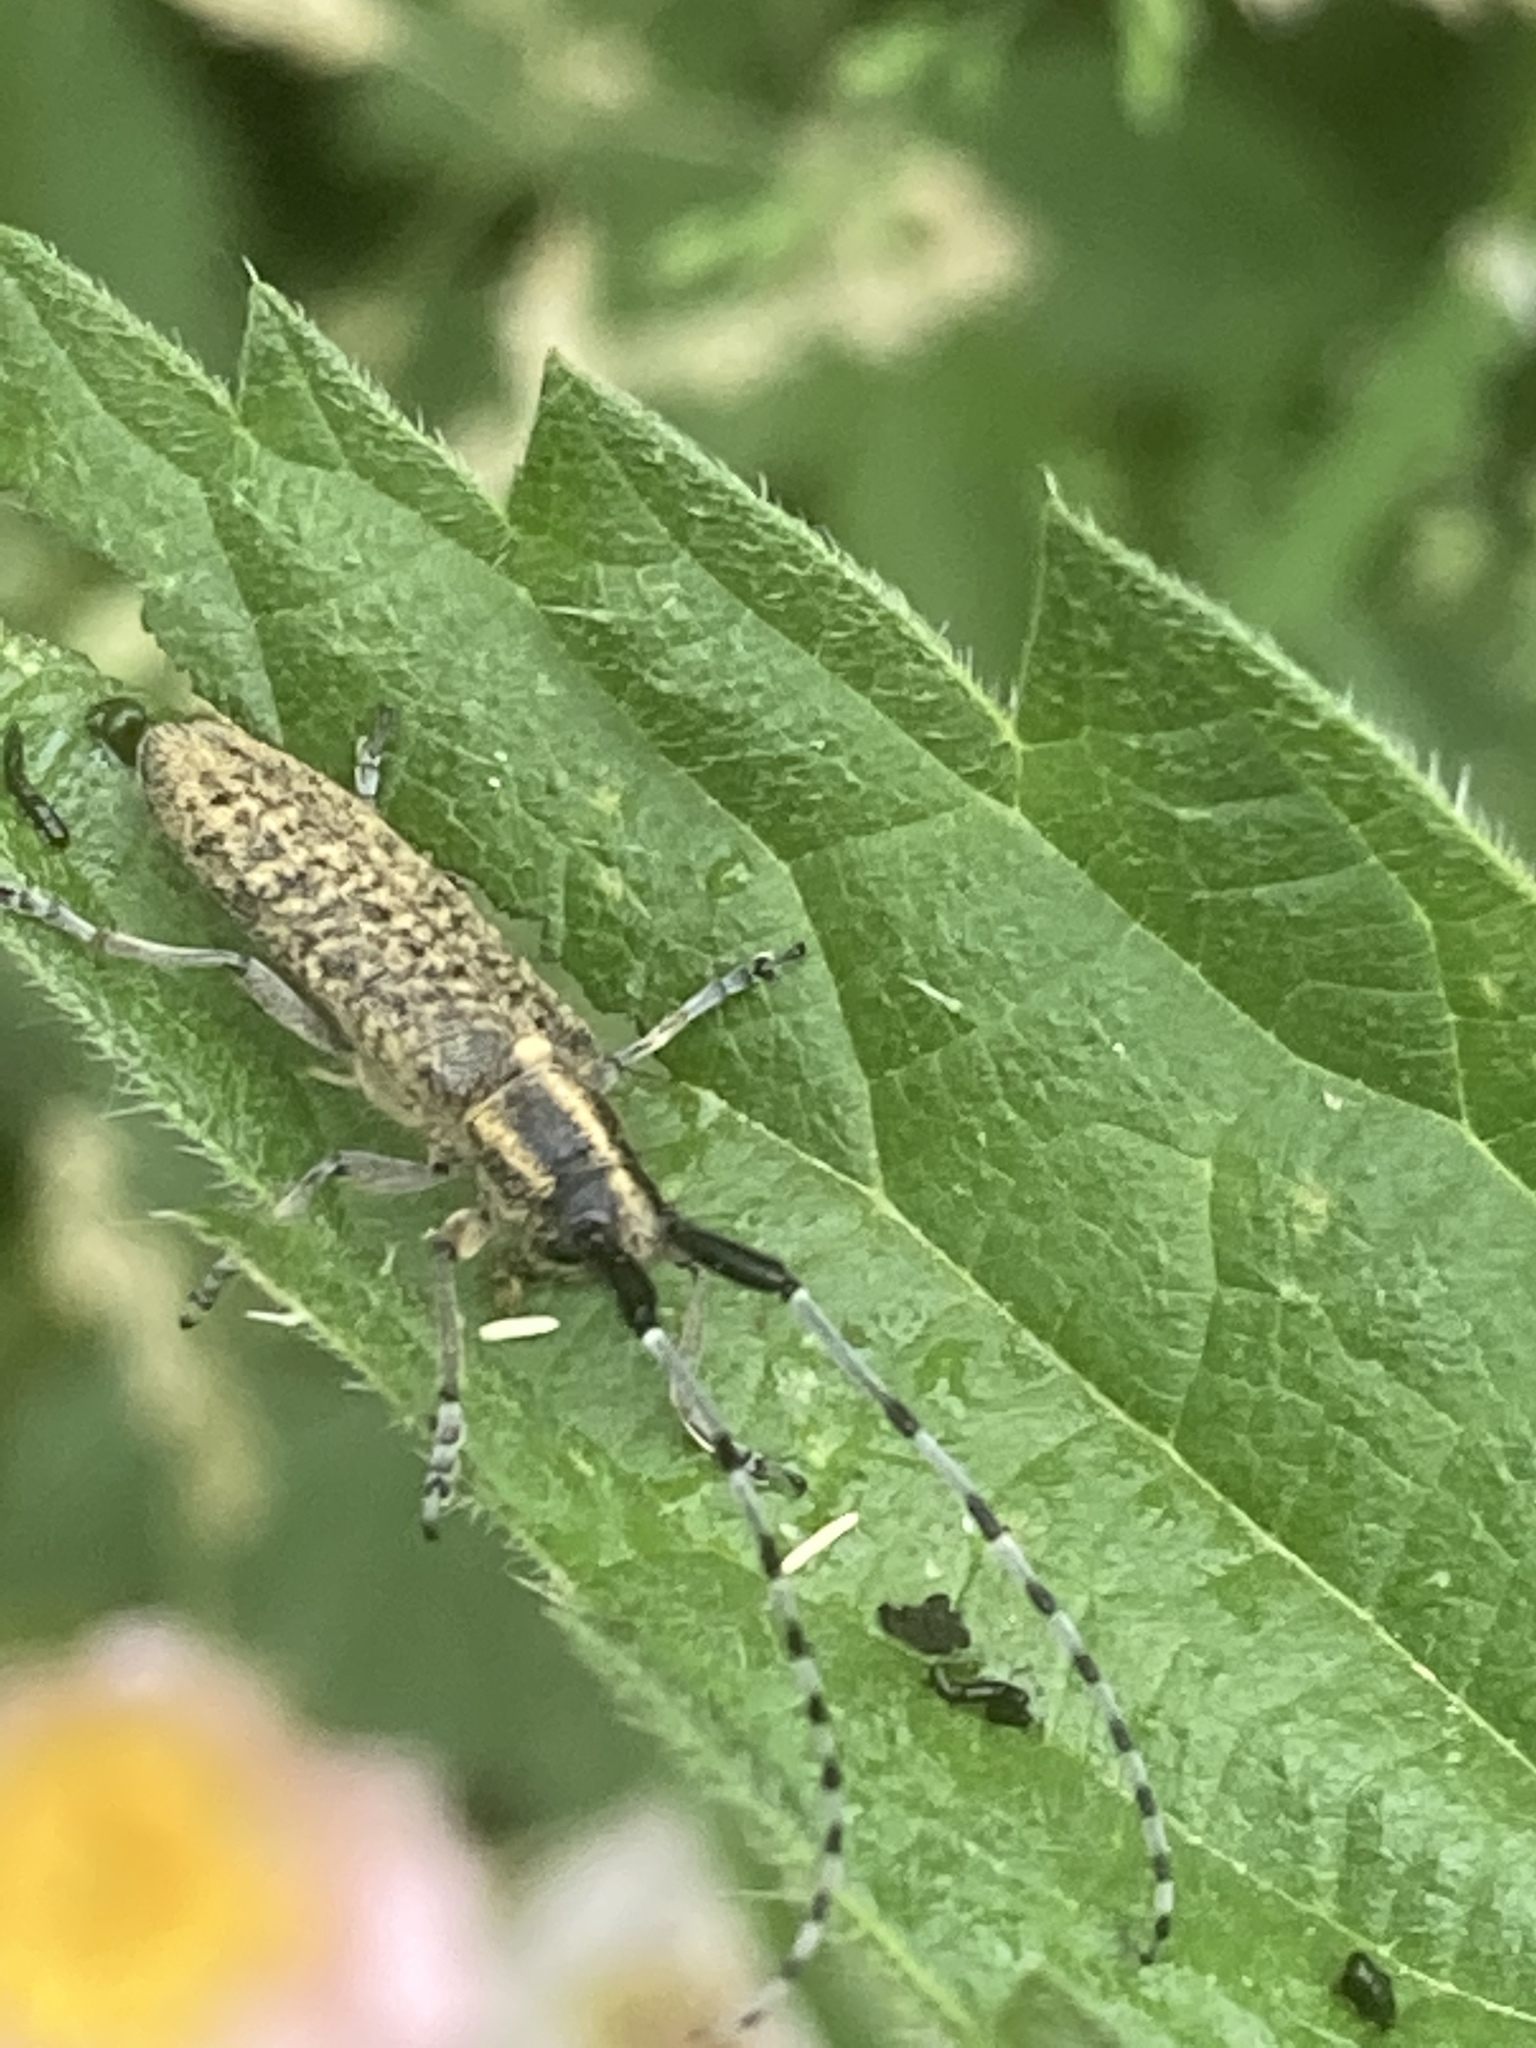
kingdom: Animalia
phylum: Arthropoda
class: Insecta
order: Coleoptera
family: Cerambycidae
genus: Agapanthia
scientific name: Agapanthia villosoviridescens
